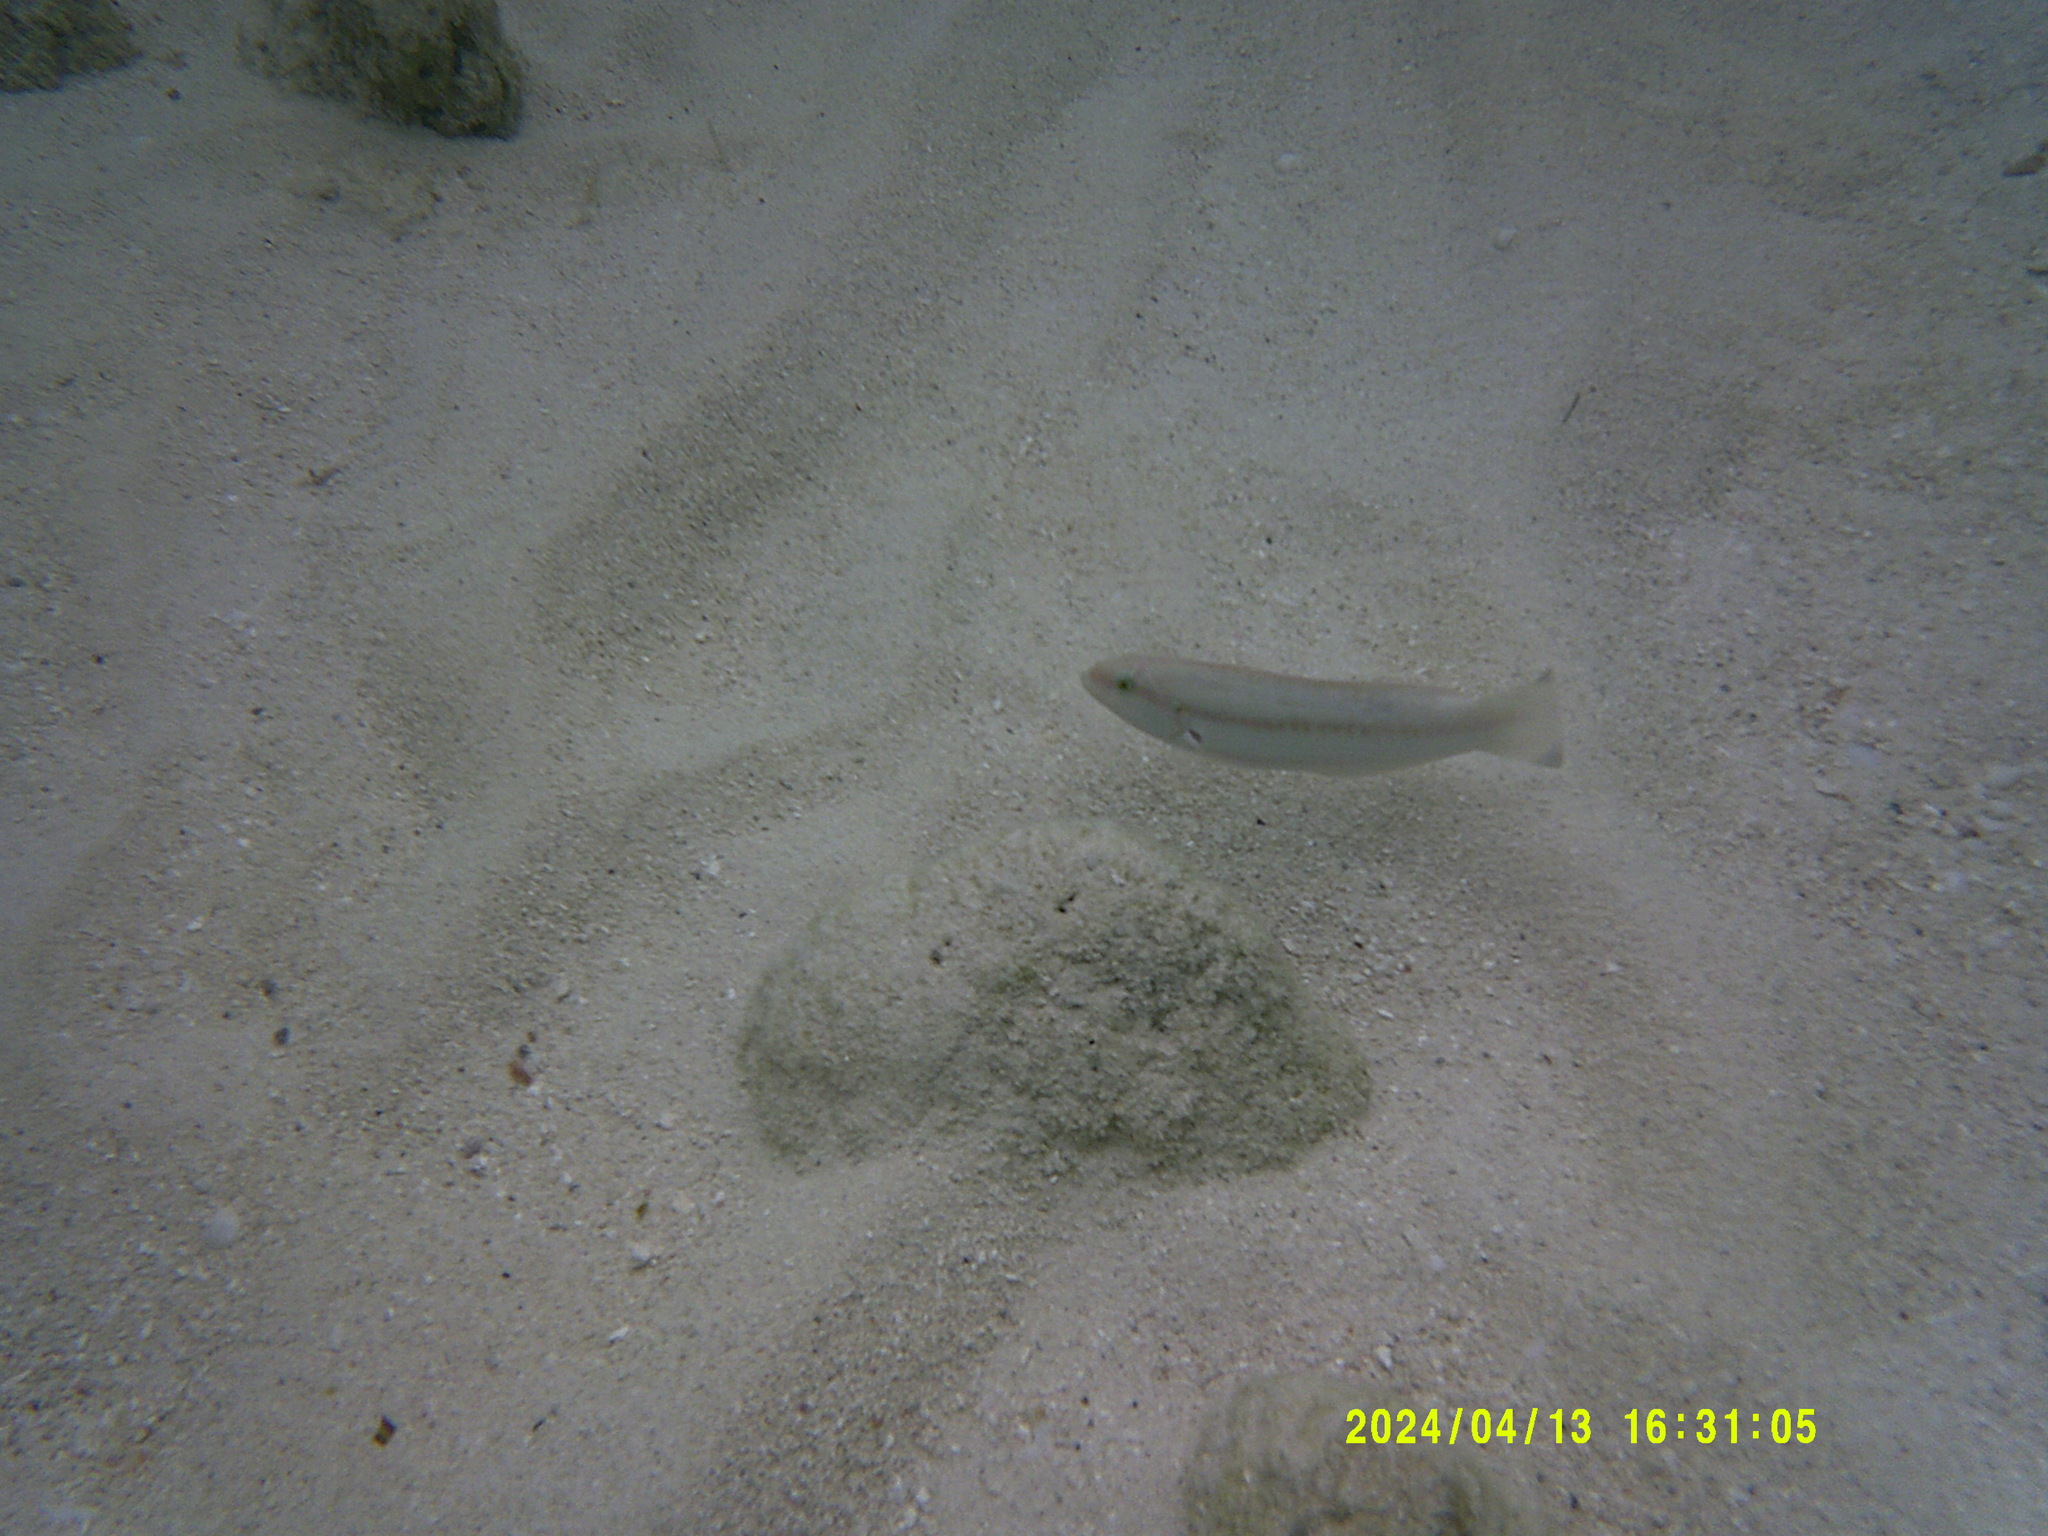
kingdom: Animalia
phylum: Chordata
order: Perciformes
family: Labridae
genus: Halichoeres
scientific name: Halichoeres bivittatus
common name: Slippery dick
